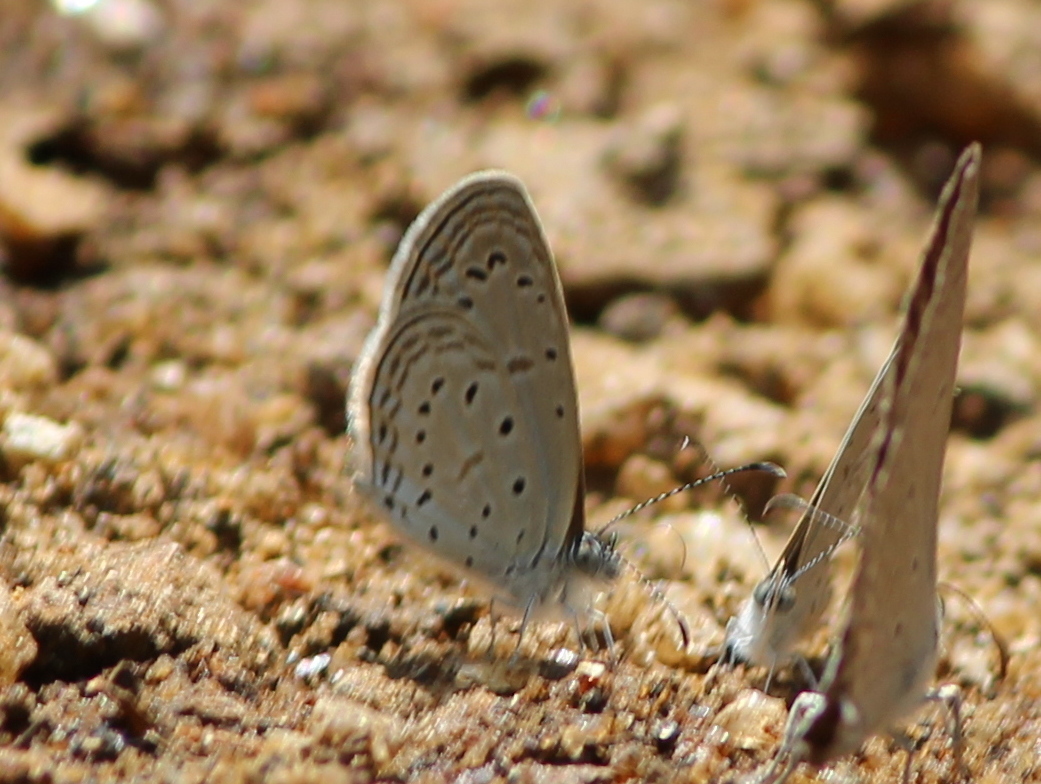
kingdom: Animalia
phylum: Arthropoda
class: Insecta
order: Lepidoptera
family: Lycaenidae
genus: Zizula
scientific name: Zizula hylax
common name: Gaika blue
